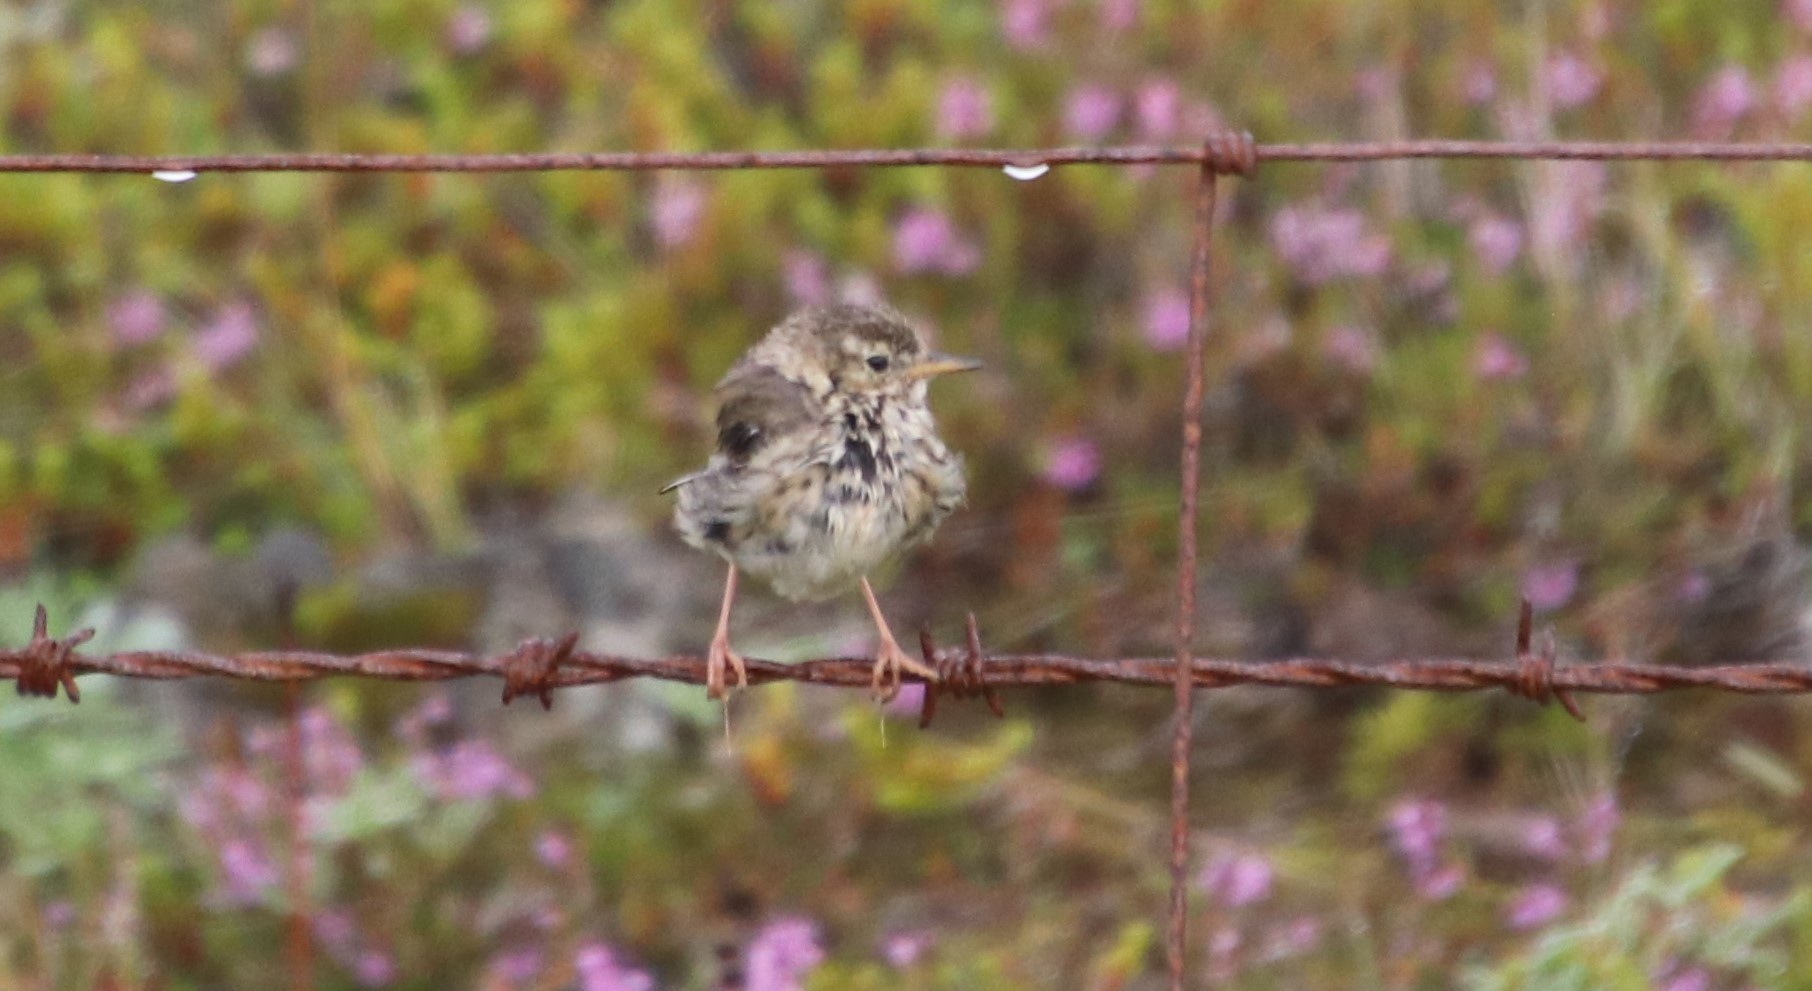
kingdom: Animalia
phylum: Chordata
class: Aves
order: Passeriformes
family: Motacillidae
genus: Anthus
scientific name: Anthus pratensis
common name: Meadow pipit
